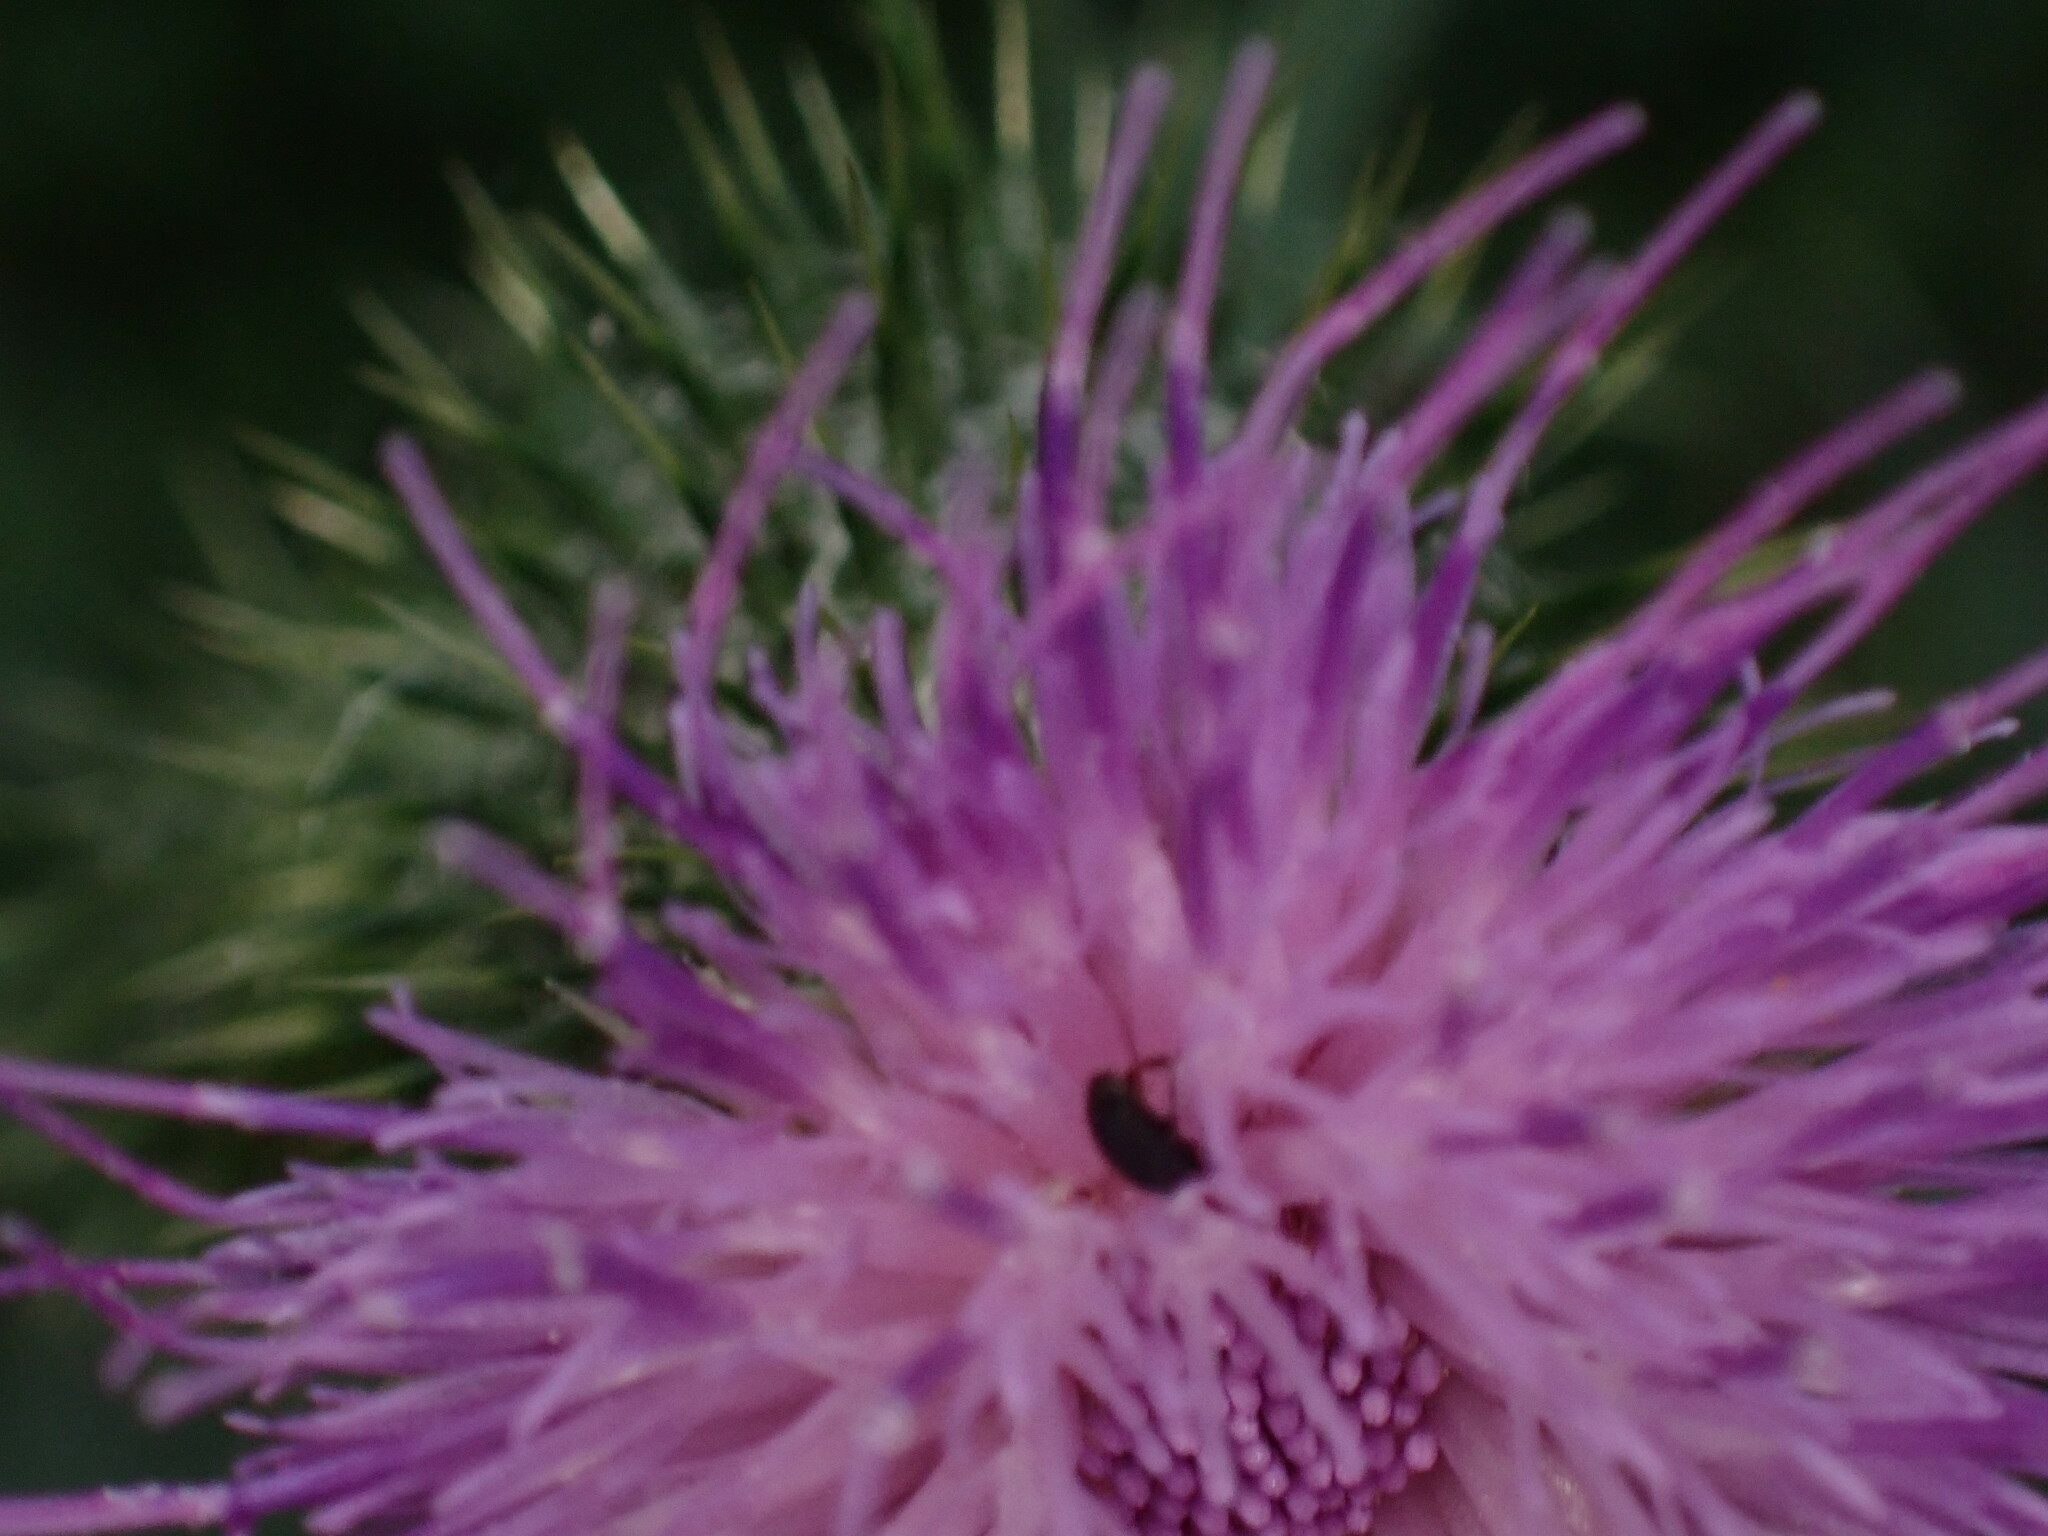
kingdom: Animalia
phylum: Arthropoda
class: Insecta
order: Hymenoptera
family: Apidae
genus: Bombus
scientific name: Bombus pascuorum
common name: Common carder bee
